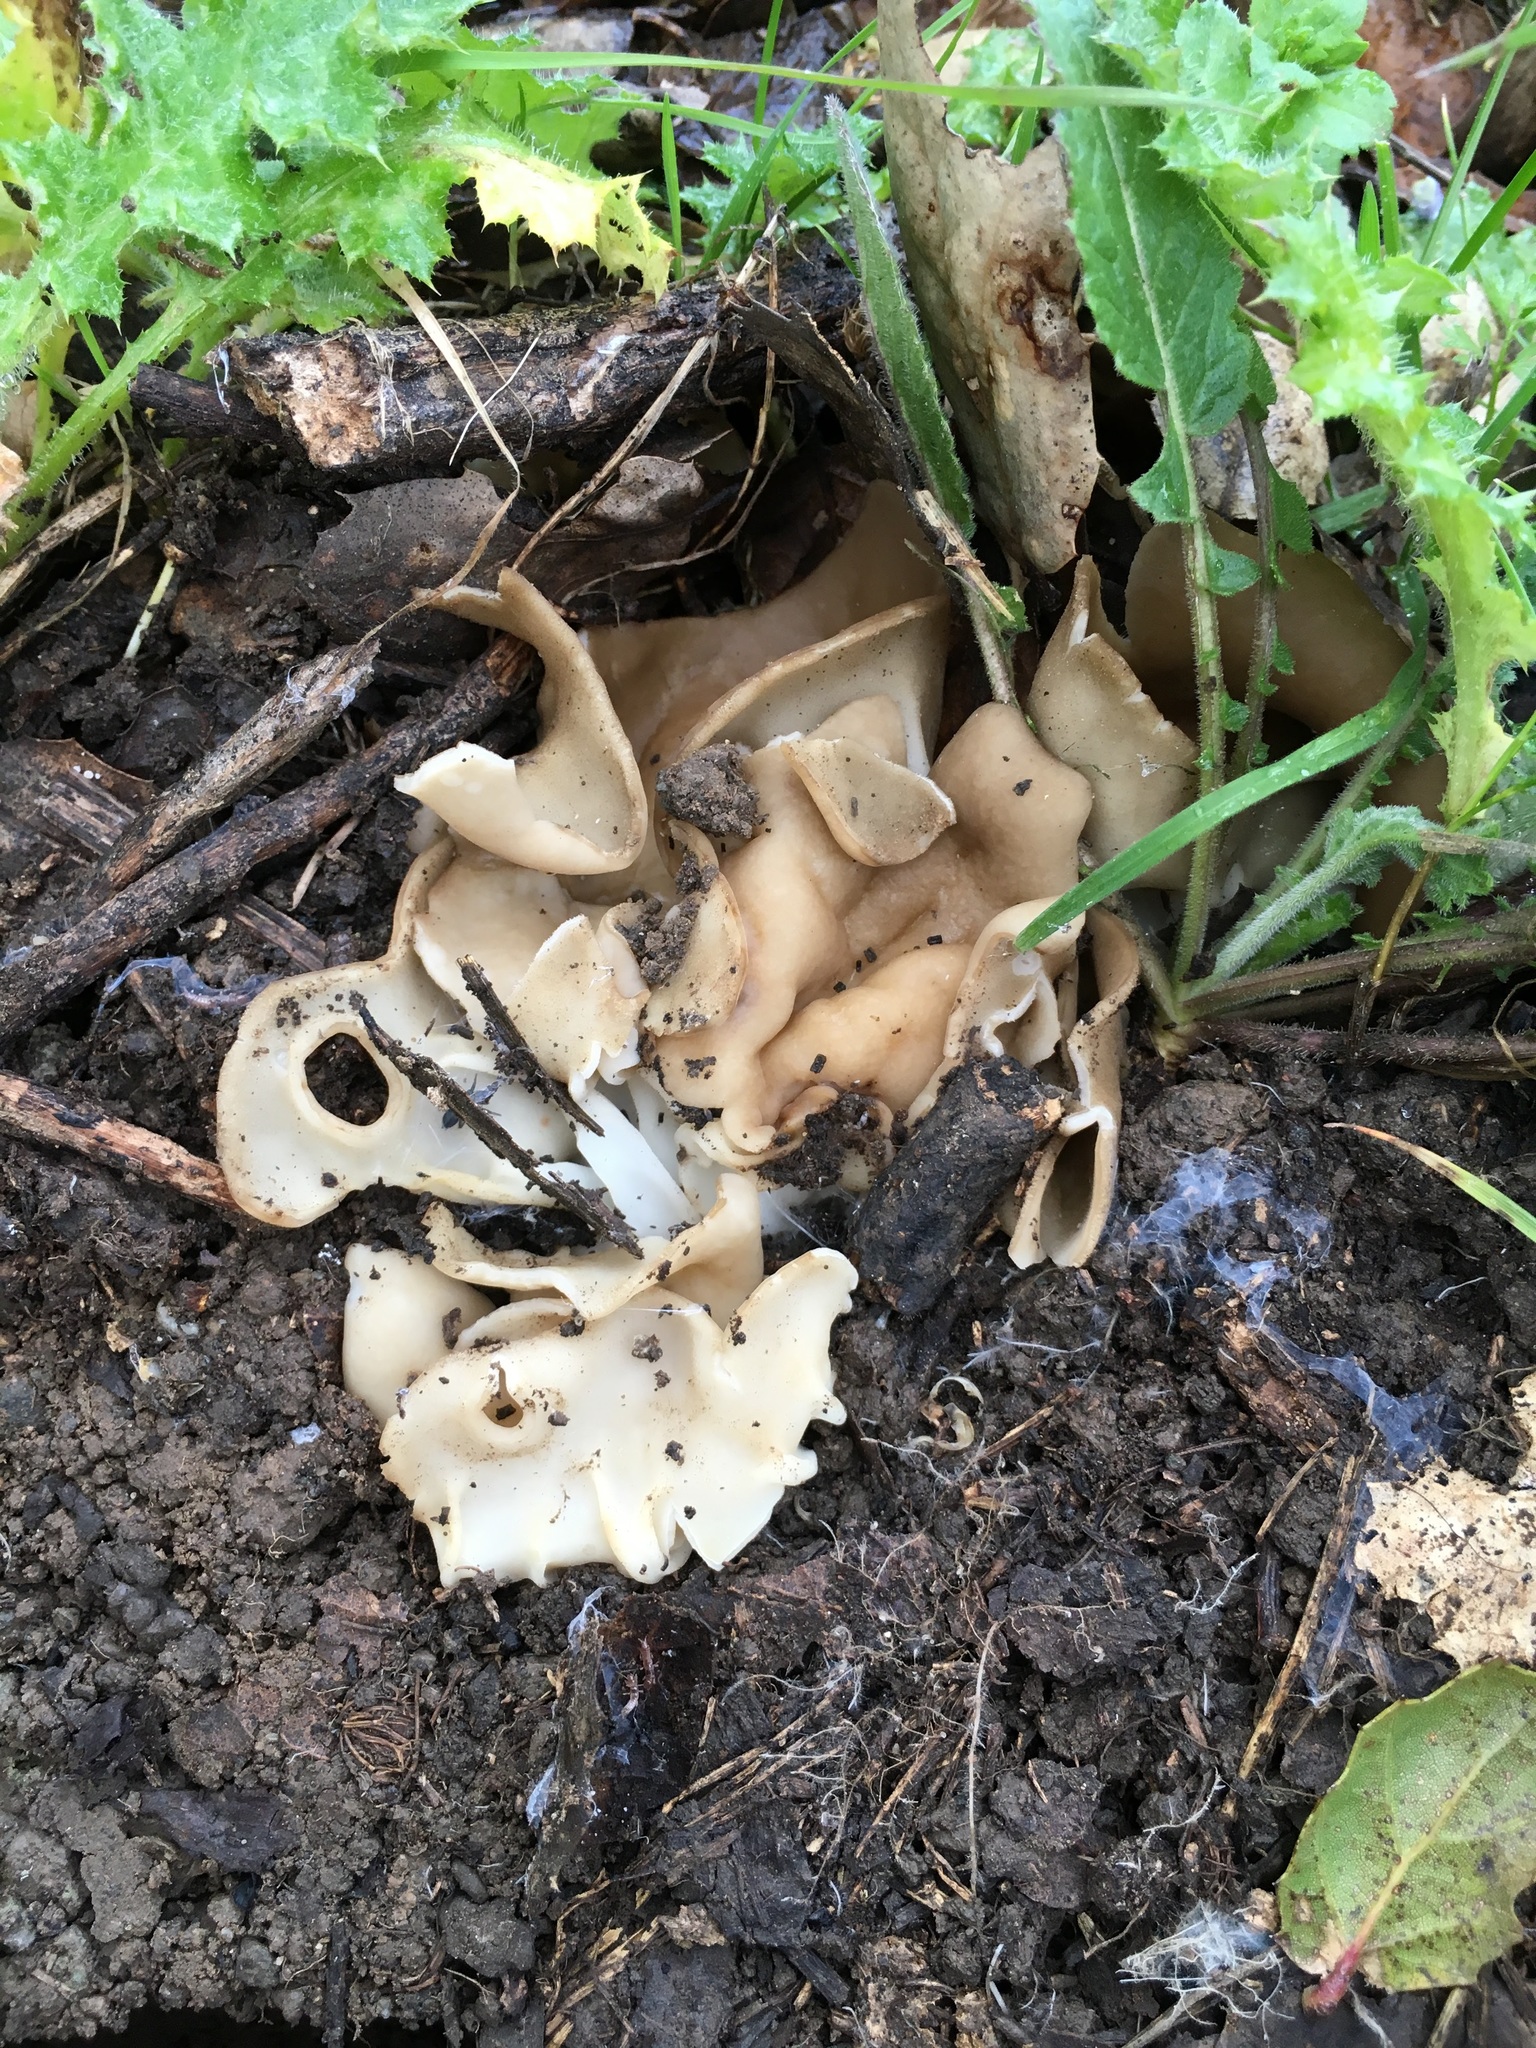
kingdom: Fungi
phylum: Ascomycota
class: Pezizomycetes
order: Pezizales
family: Helvellaceae
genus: Helvella
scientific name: Helvella acetabulum
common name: Vinegar cup
